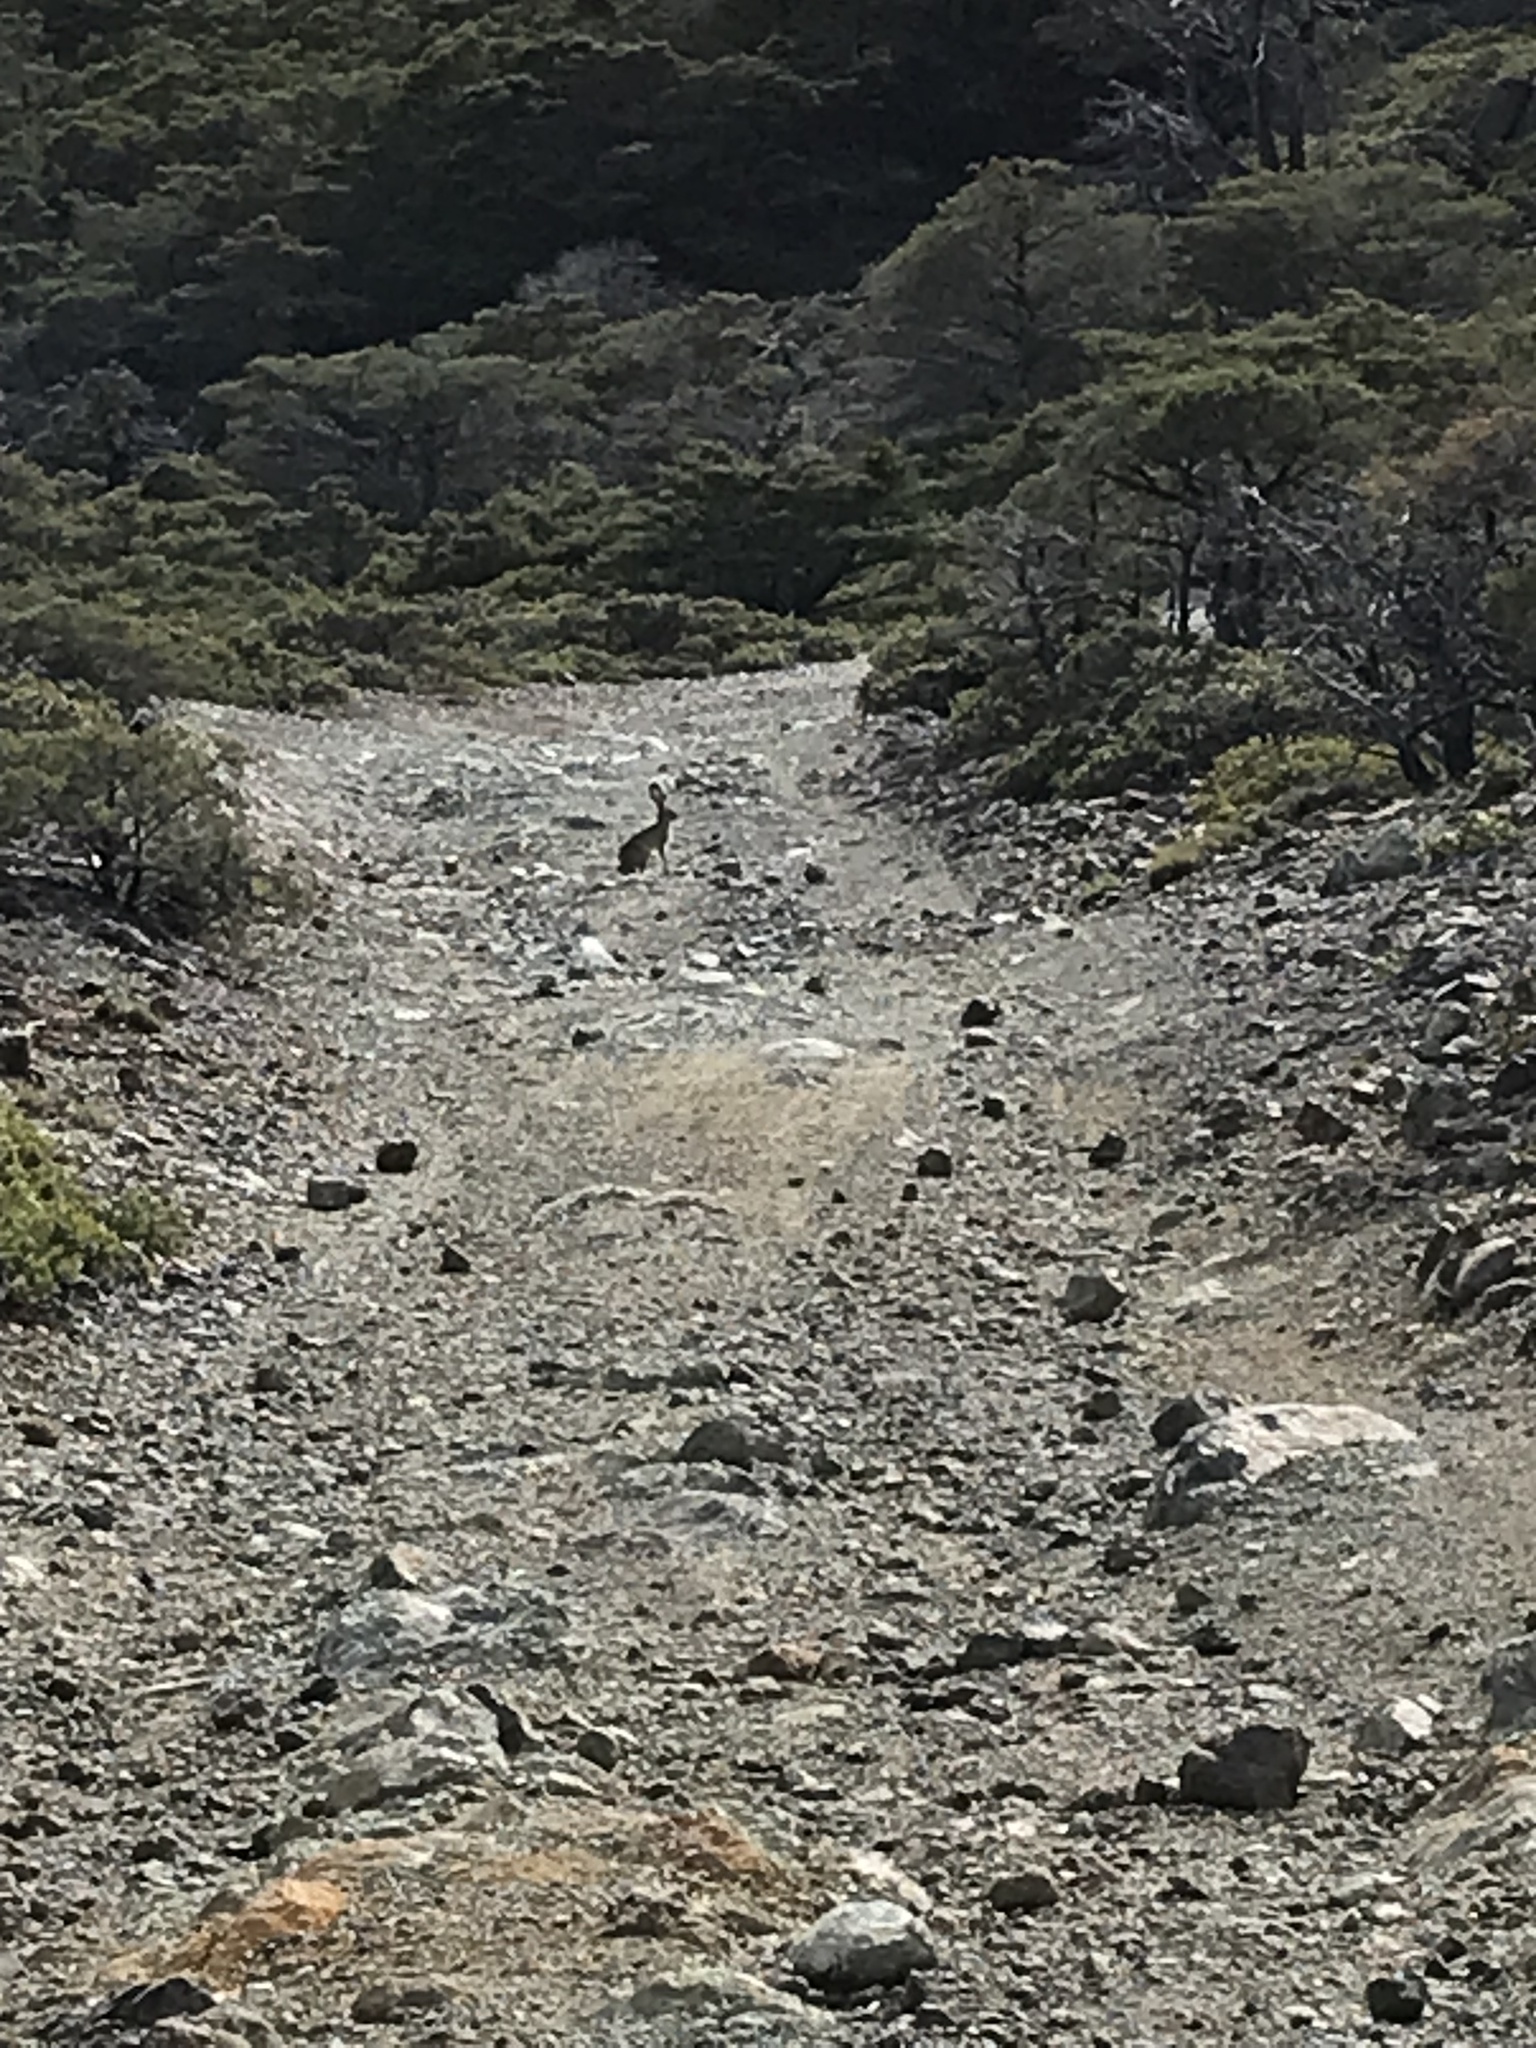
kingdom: Animalia
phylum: Chordata
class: Mammalia
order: Lagomorpha
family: Leporidae
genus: Lepus
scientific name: Lepus californicus
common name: Black-tailed jackrabbit
